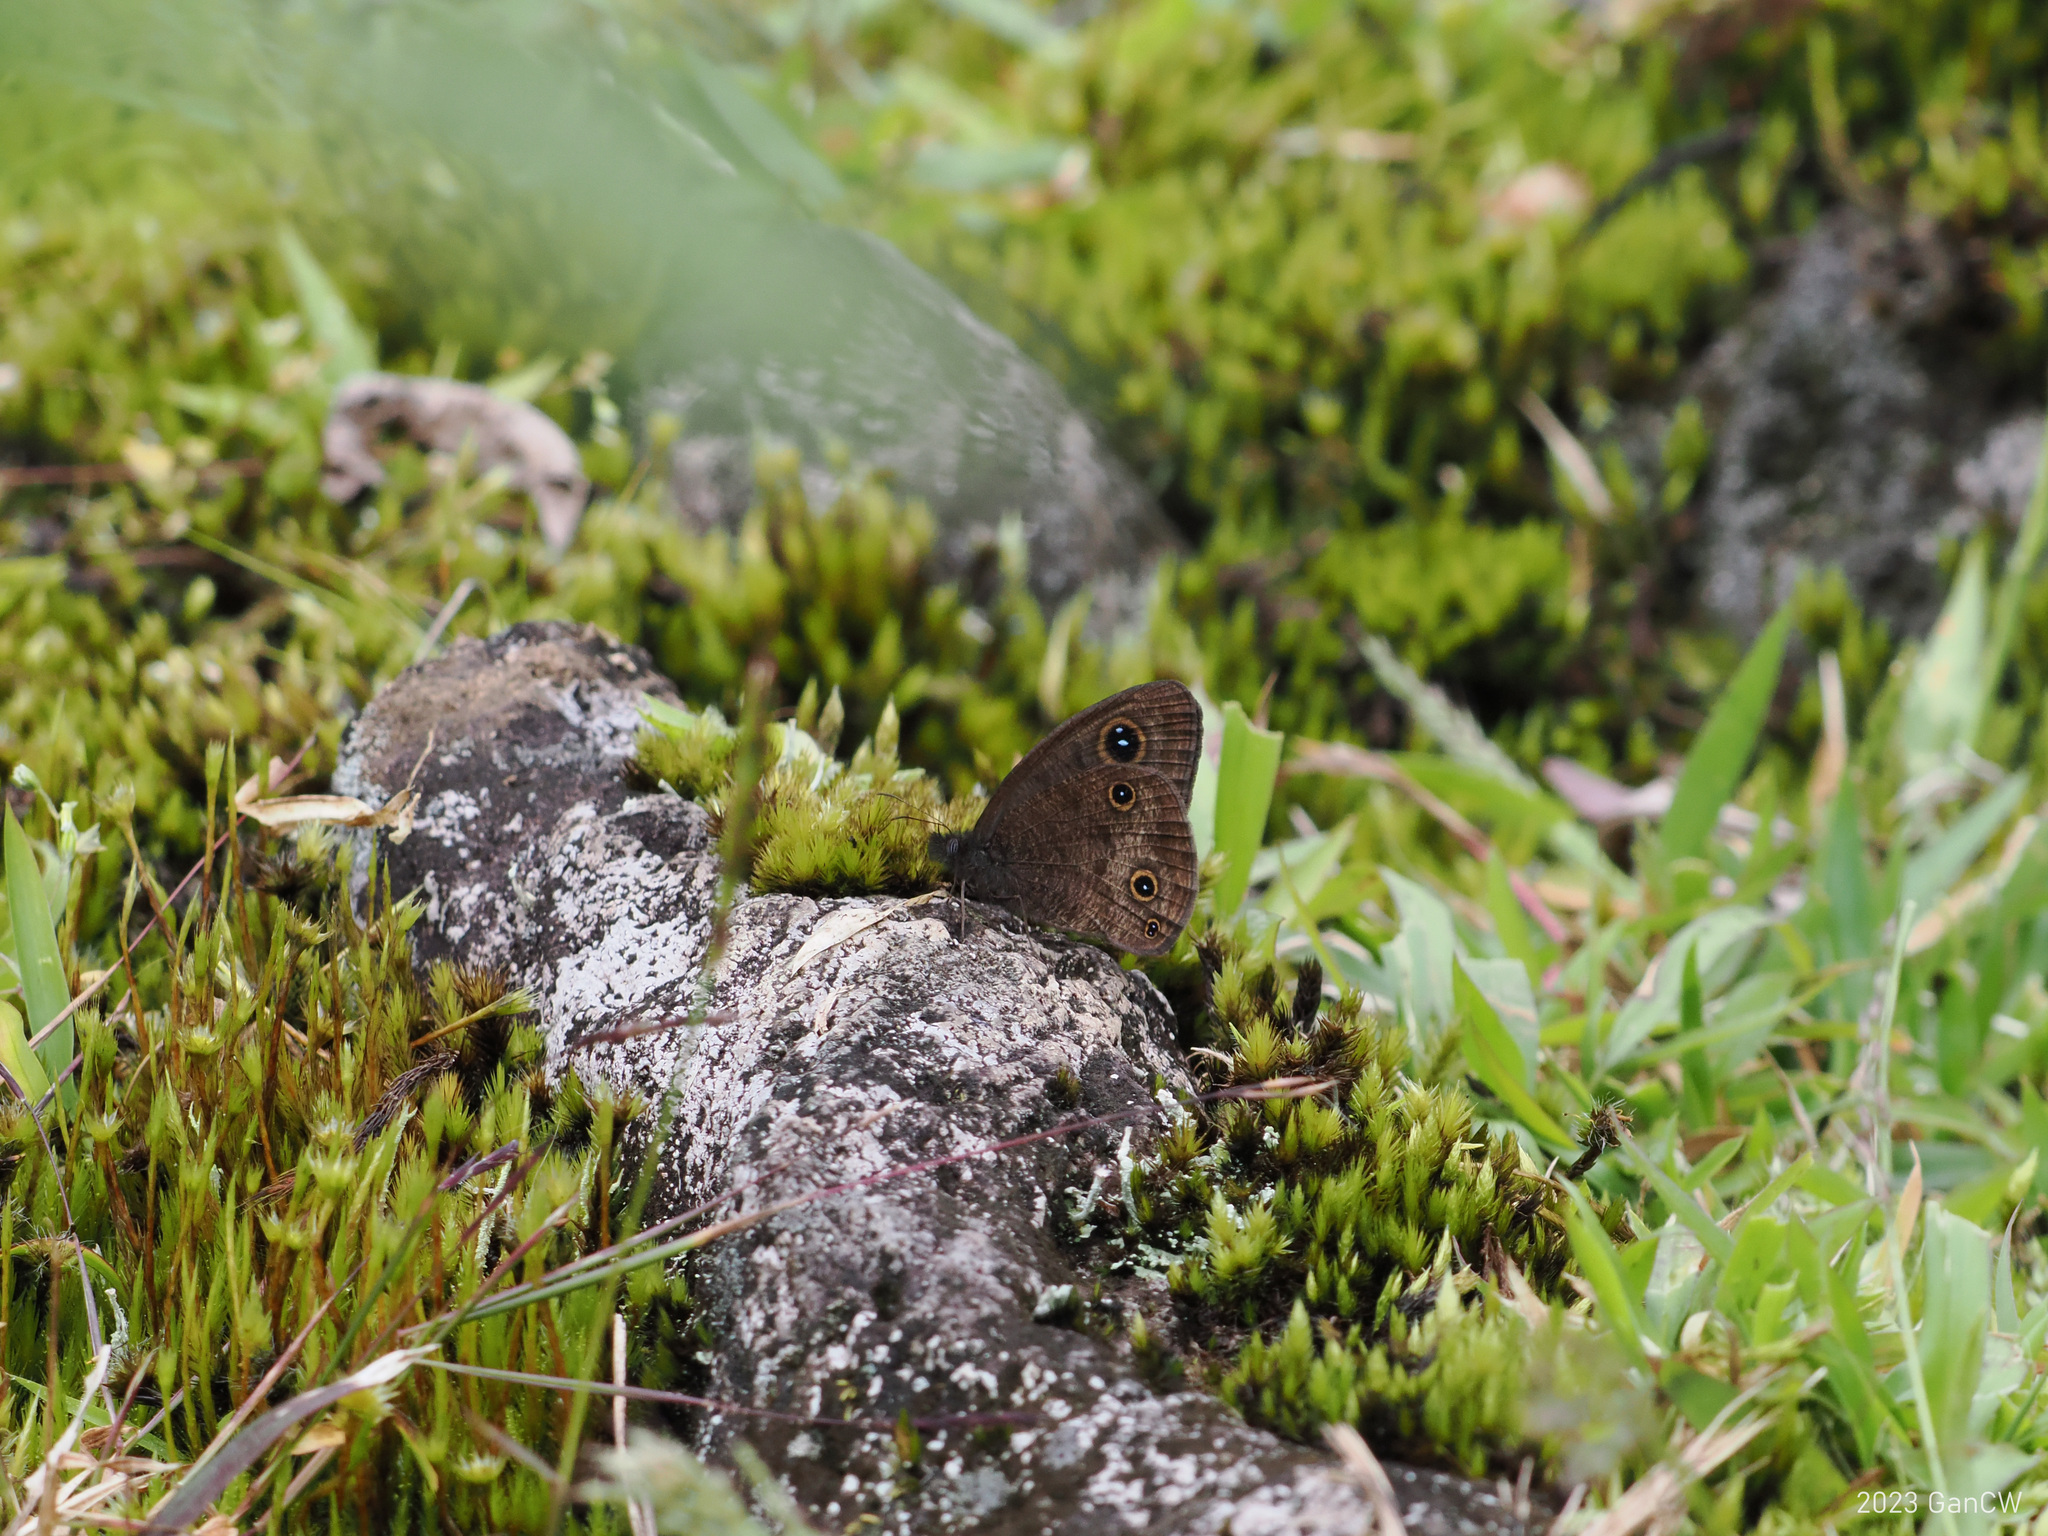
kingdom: Animalia
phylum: Arthropoda
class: Insecta
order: Lepidoptera
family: Nymphalidae
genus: Ypthima
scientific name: Ypthima ancus
